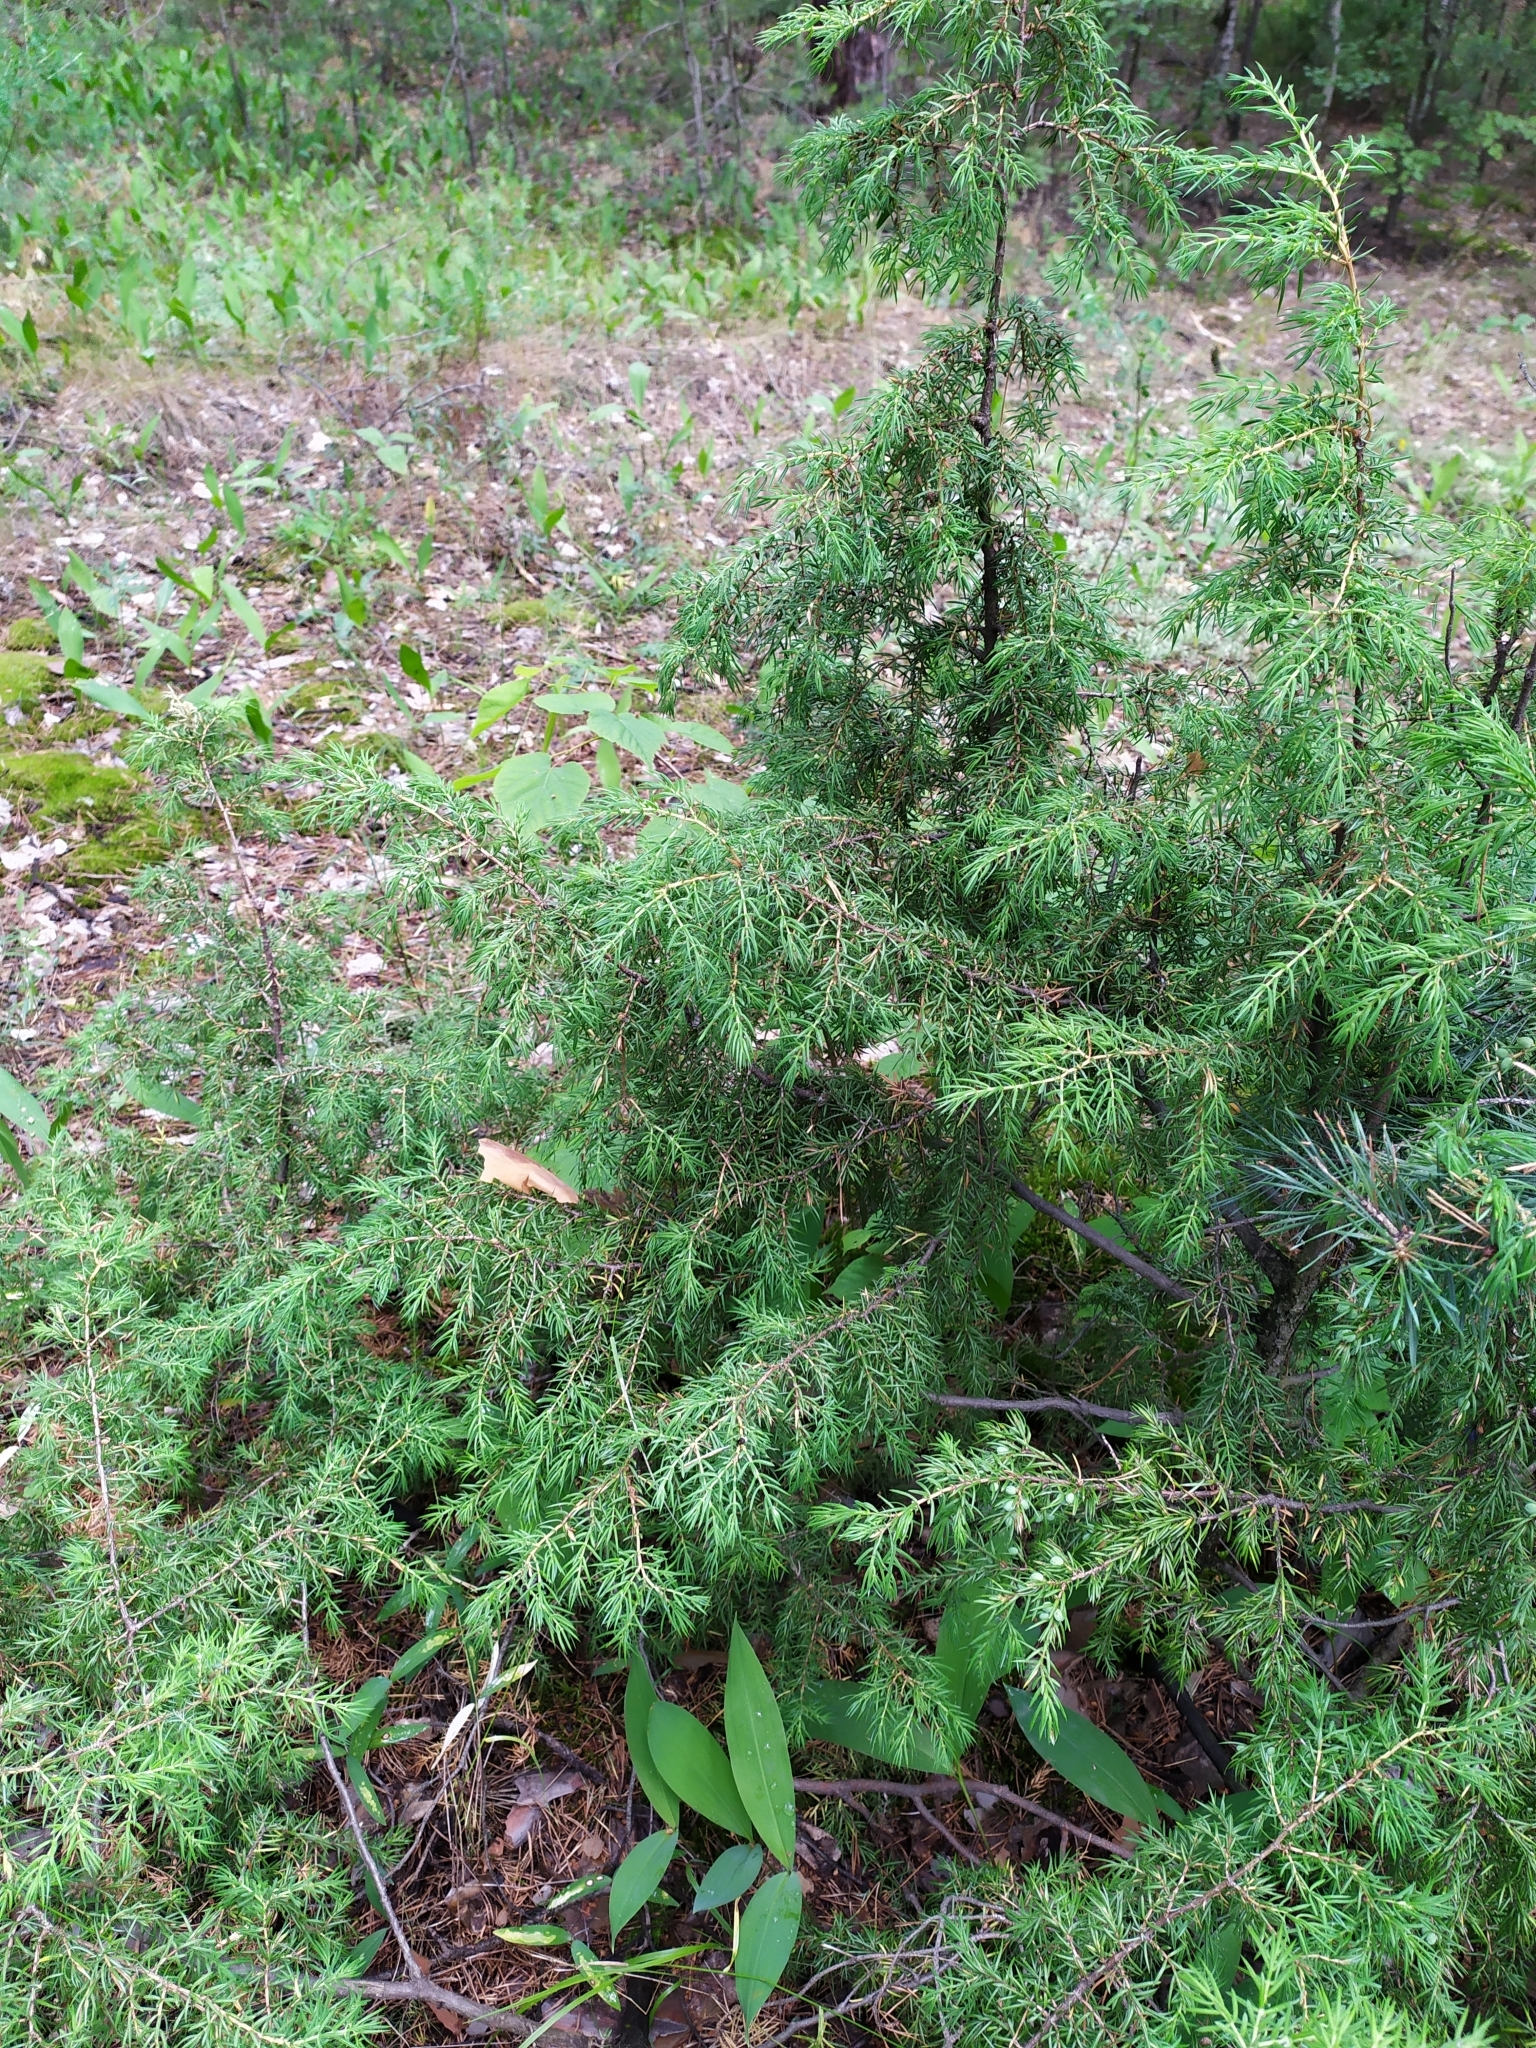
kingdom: Plantae
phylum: Tracheophyta
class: Pinopsida
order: Pinales
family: Cupressaceae
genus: Juniperus
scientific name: Juniperus communis
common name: Common juniper
